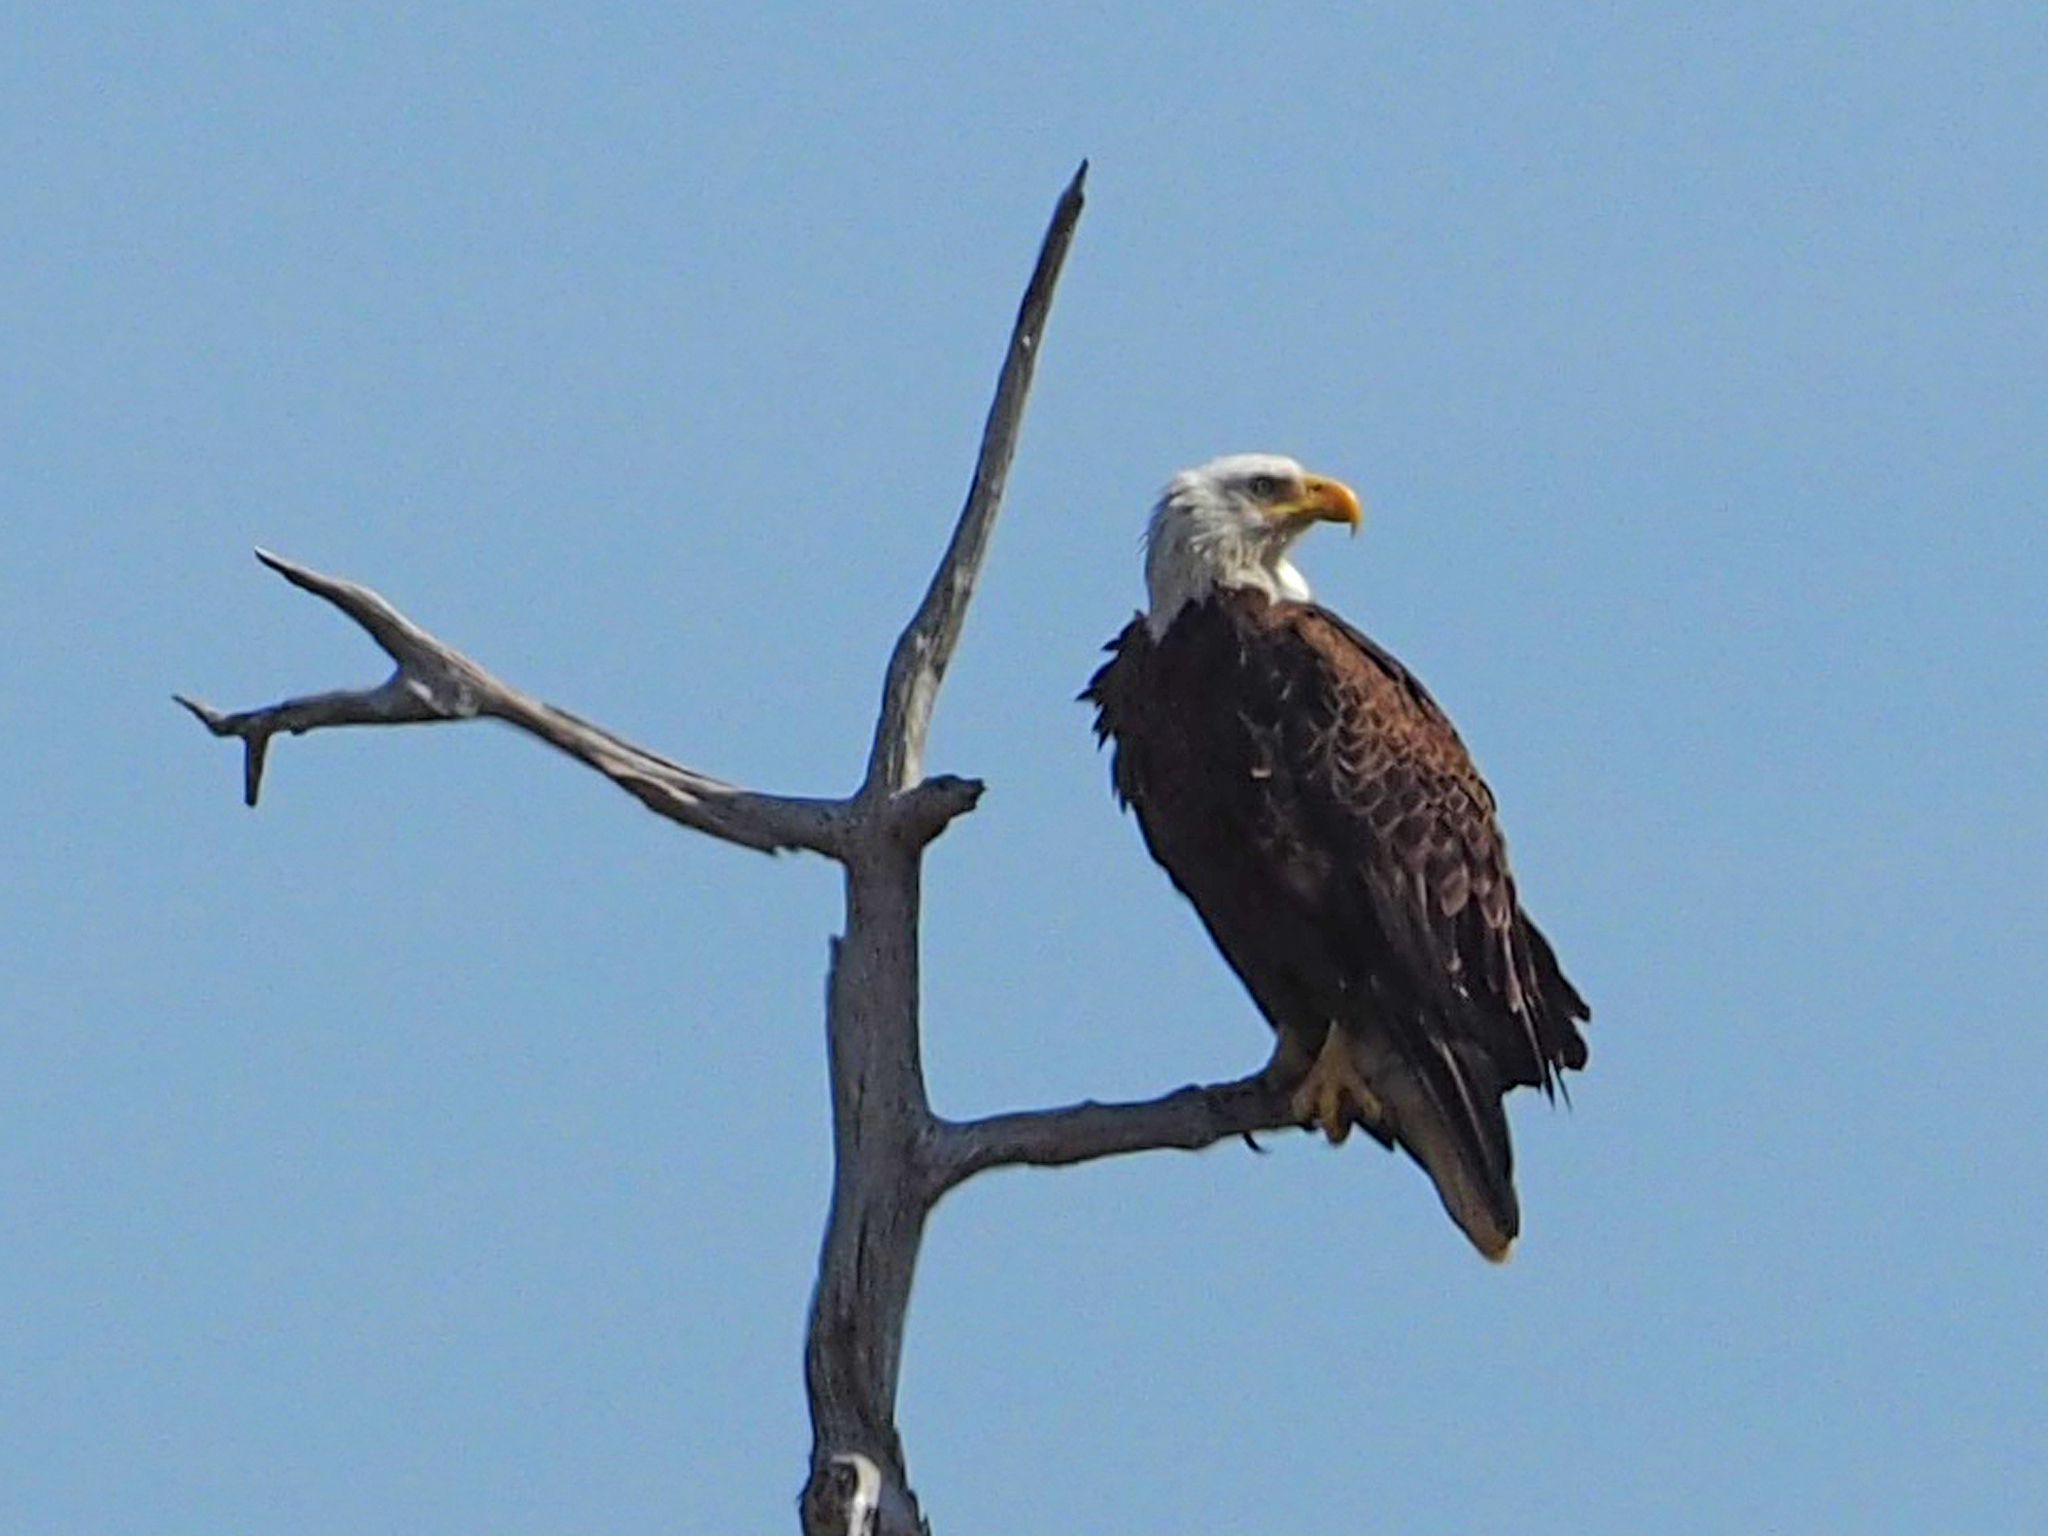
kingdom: Animalia
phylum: Chordata
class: Aves
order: Accipitriformes
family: Accipitridae
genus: Haliaeetus
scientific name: Haliaeetus leucocephalus
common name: Bald eagle
